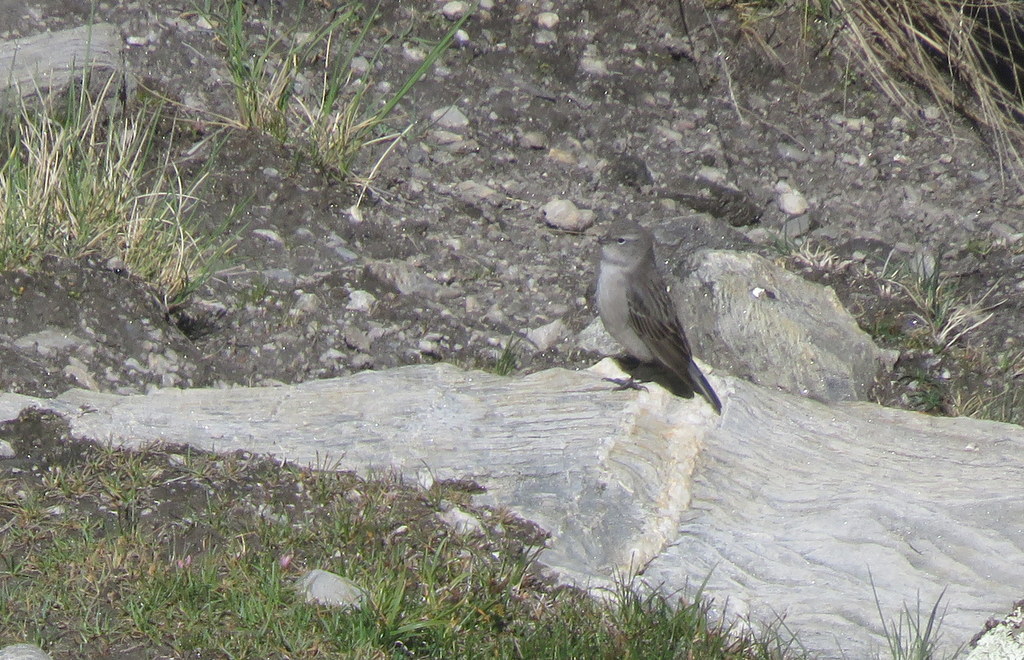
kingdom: Animalia
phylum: Chordata
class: Aves
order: Passeriformes
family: Thraupidae
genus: Geospizopsis
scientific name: Geospizopsis plebejus
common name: Ash-breasted sierra-finch
